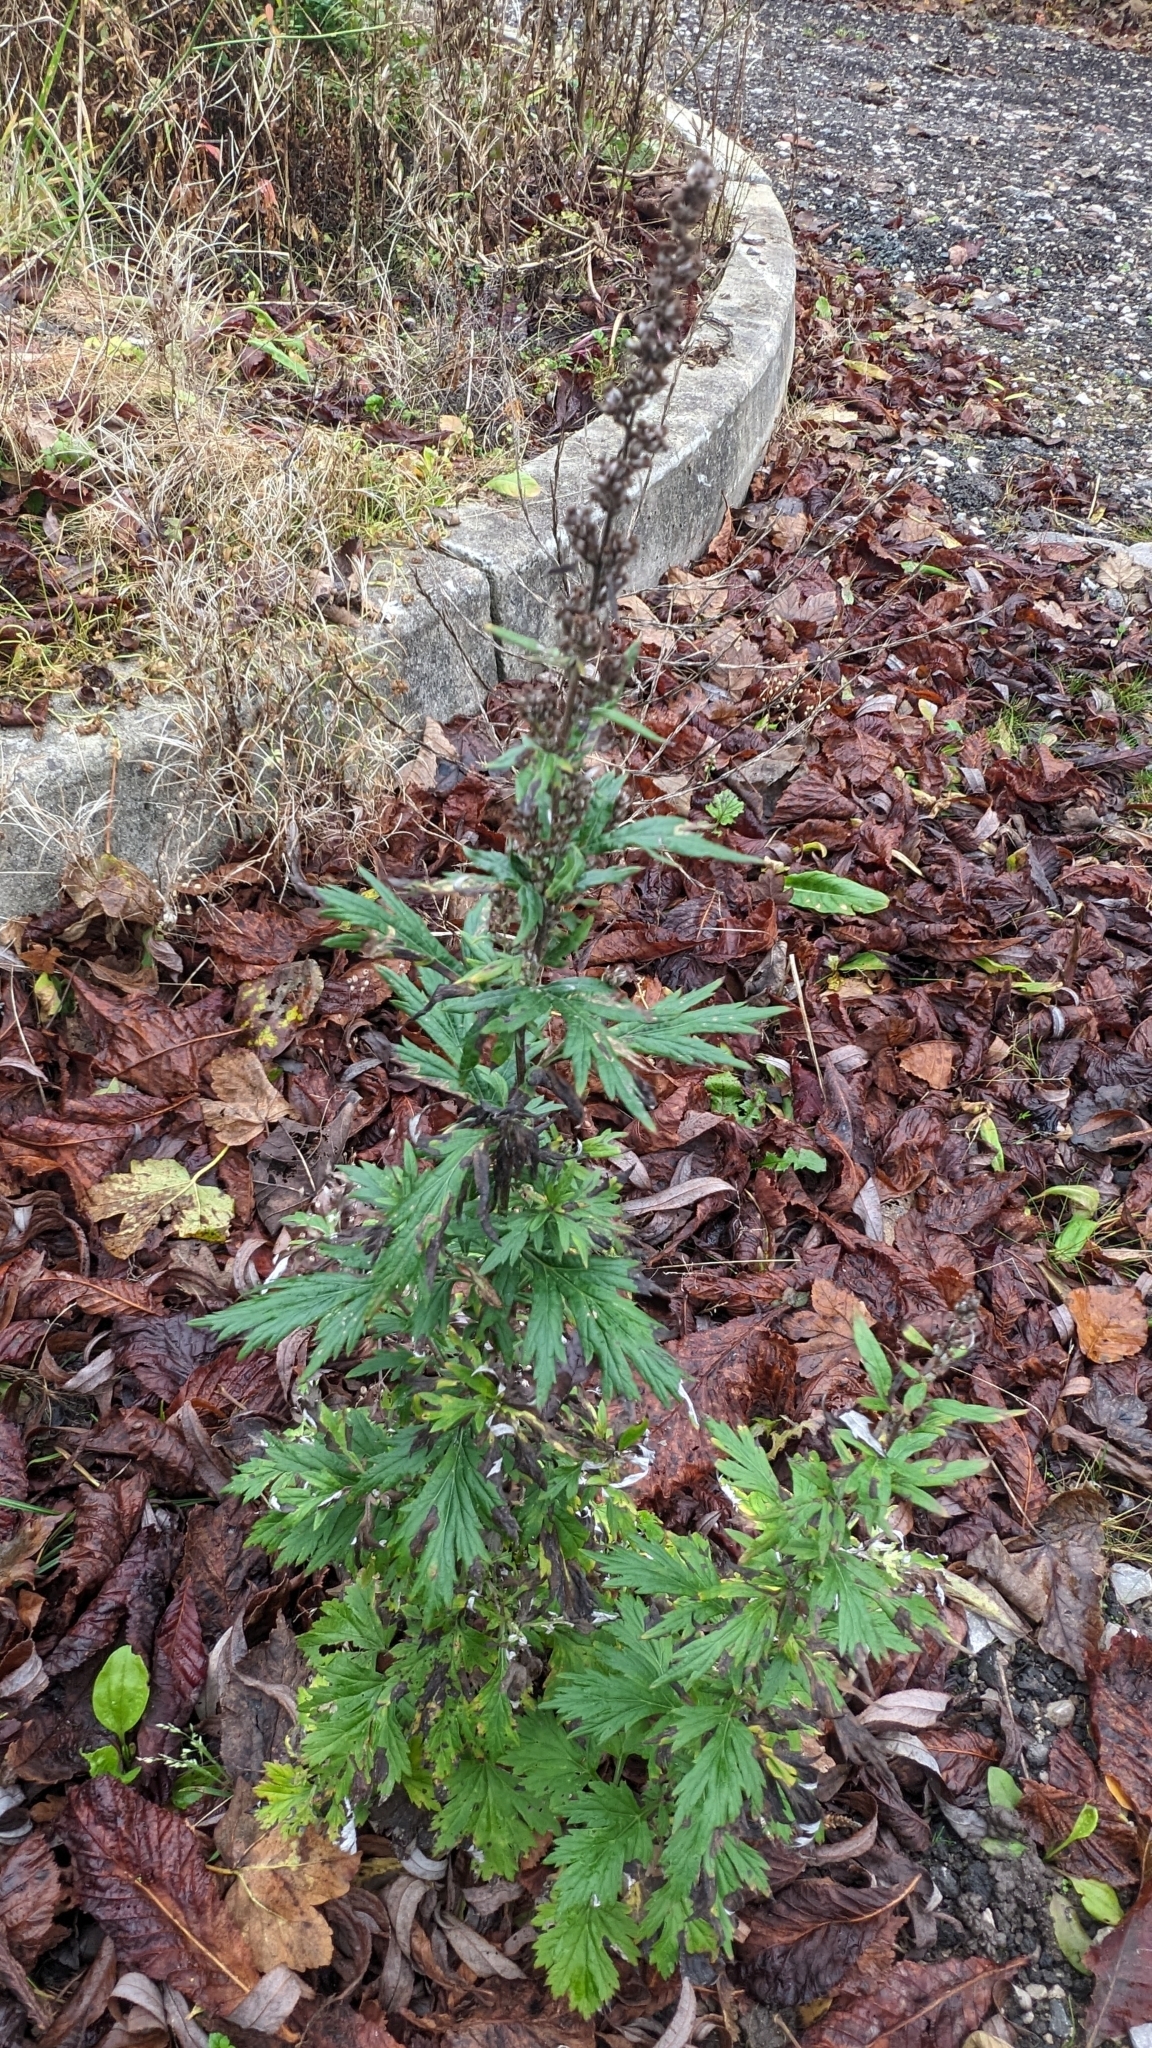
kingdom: Plantae
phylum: Tracheophyta
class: Magnoliopsida
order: Asterales
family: Asteraceae
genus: Artemisia
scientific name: Artemisia vulgaris
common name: Mugwort
